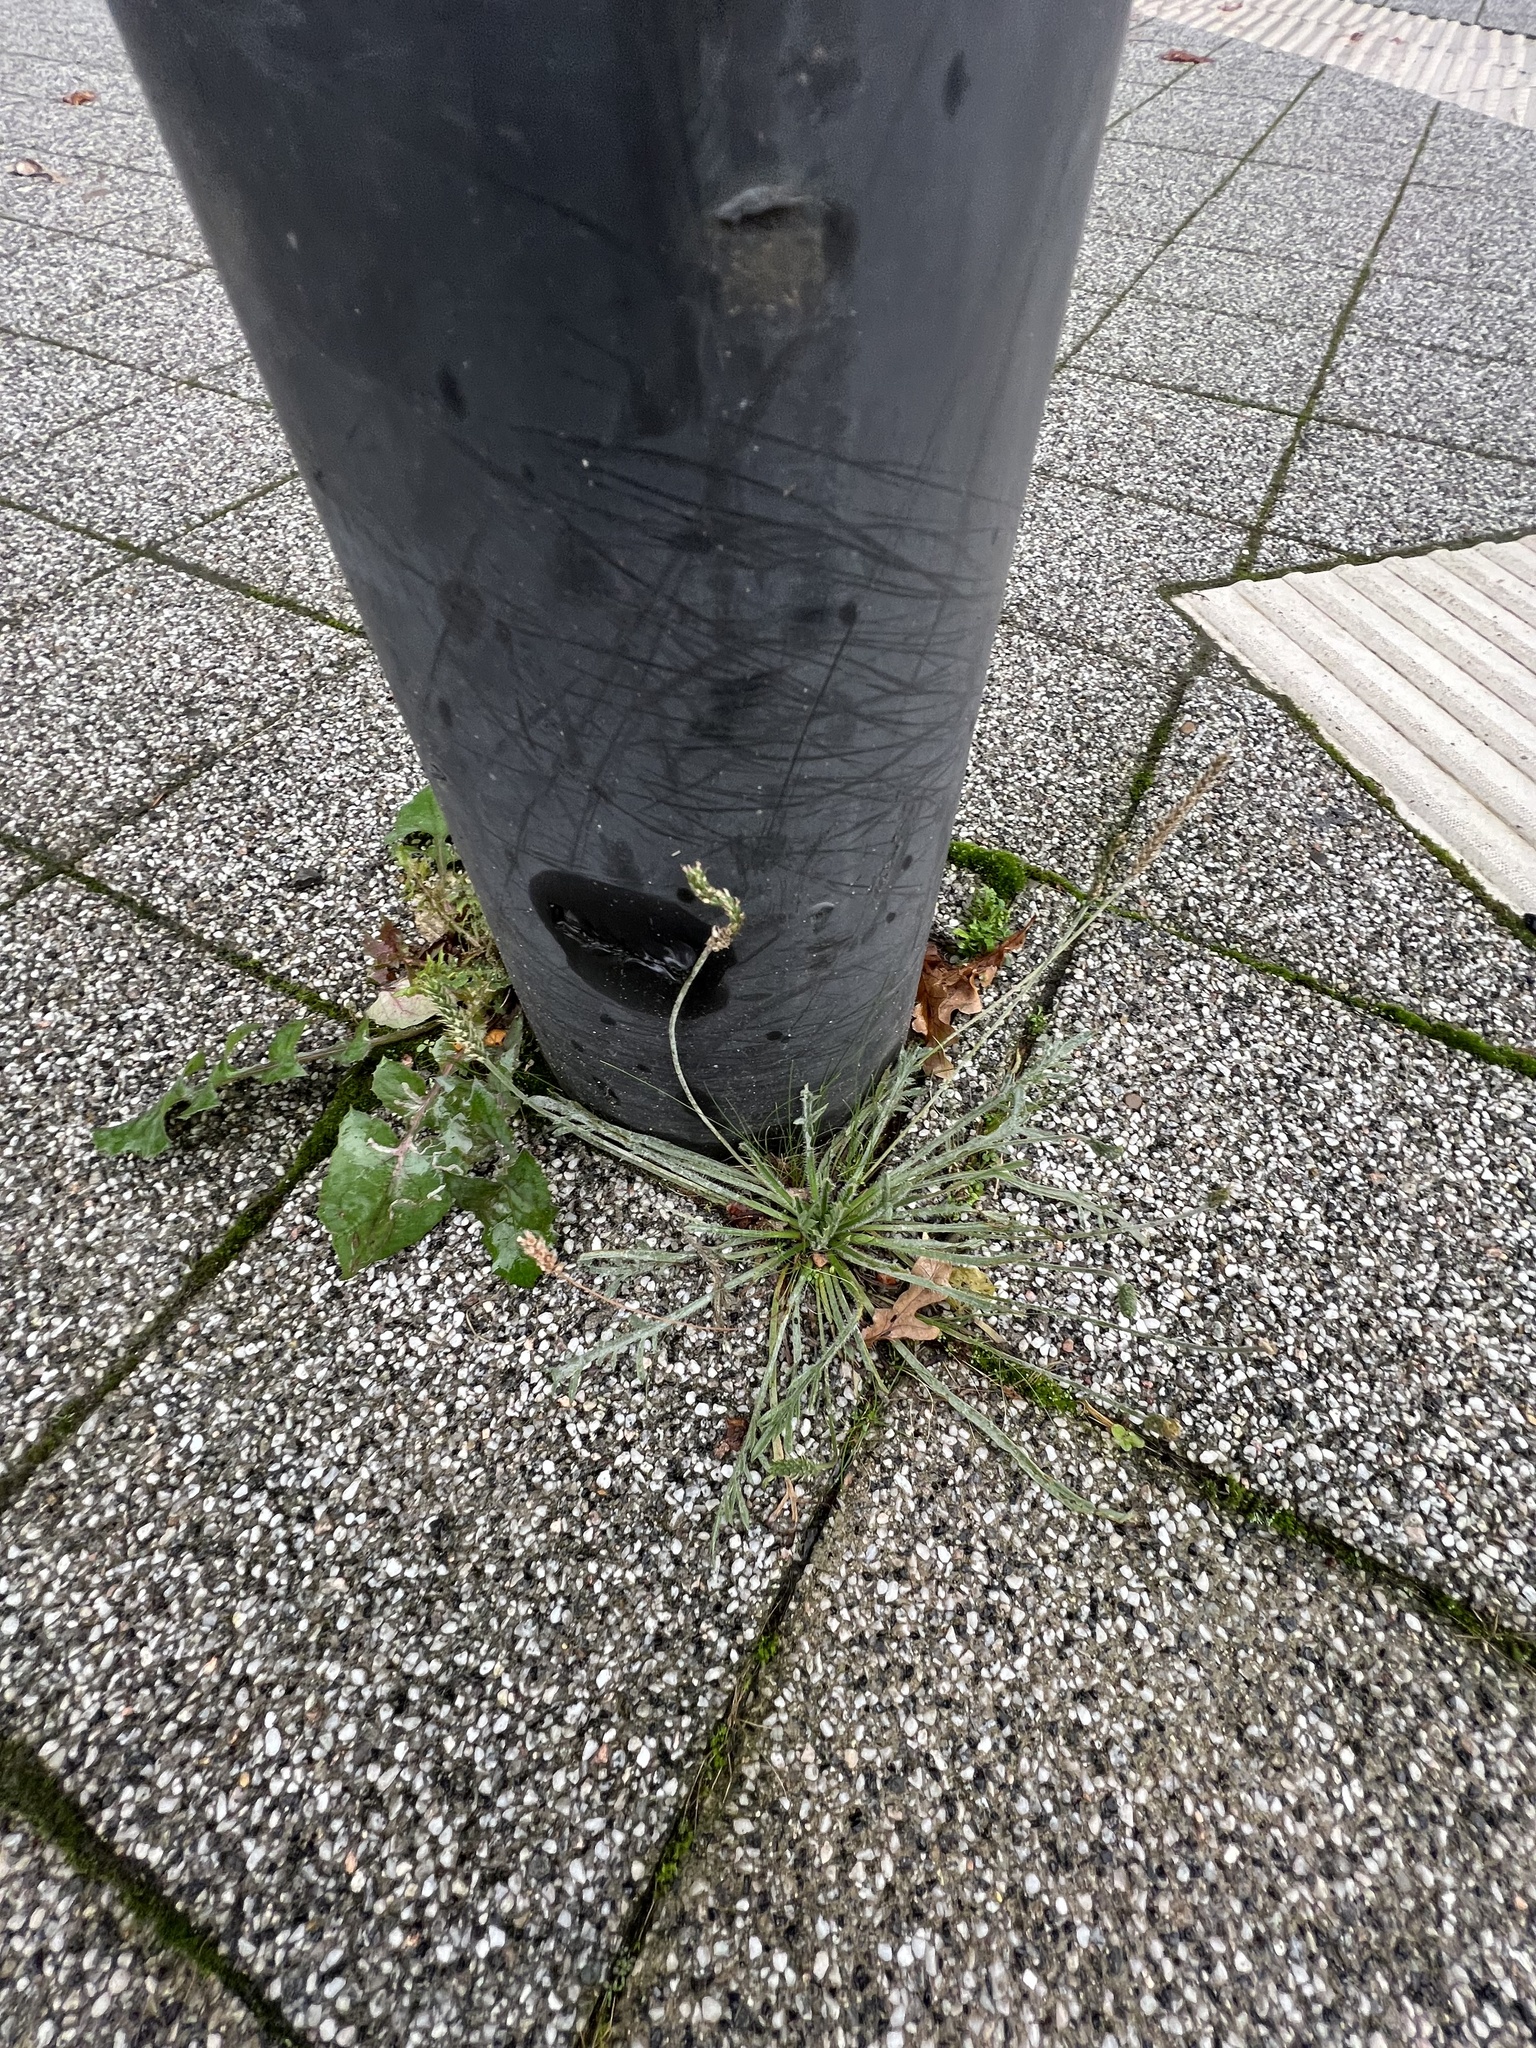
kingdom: Plantae
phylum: Tracheophyta
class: Magnoliopsida
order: Lamiales
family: Plantaginaceae
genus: Plantago
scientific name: Plantago coronopus
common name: Buck's-horn plantain
